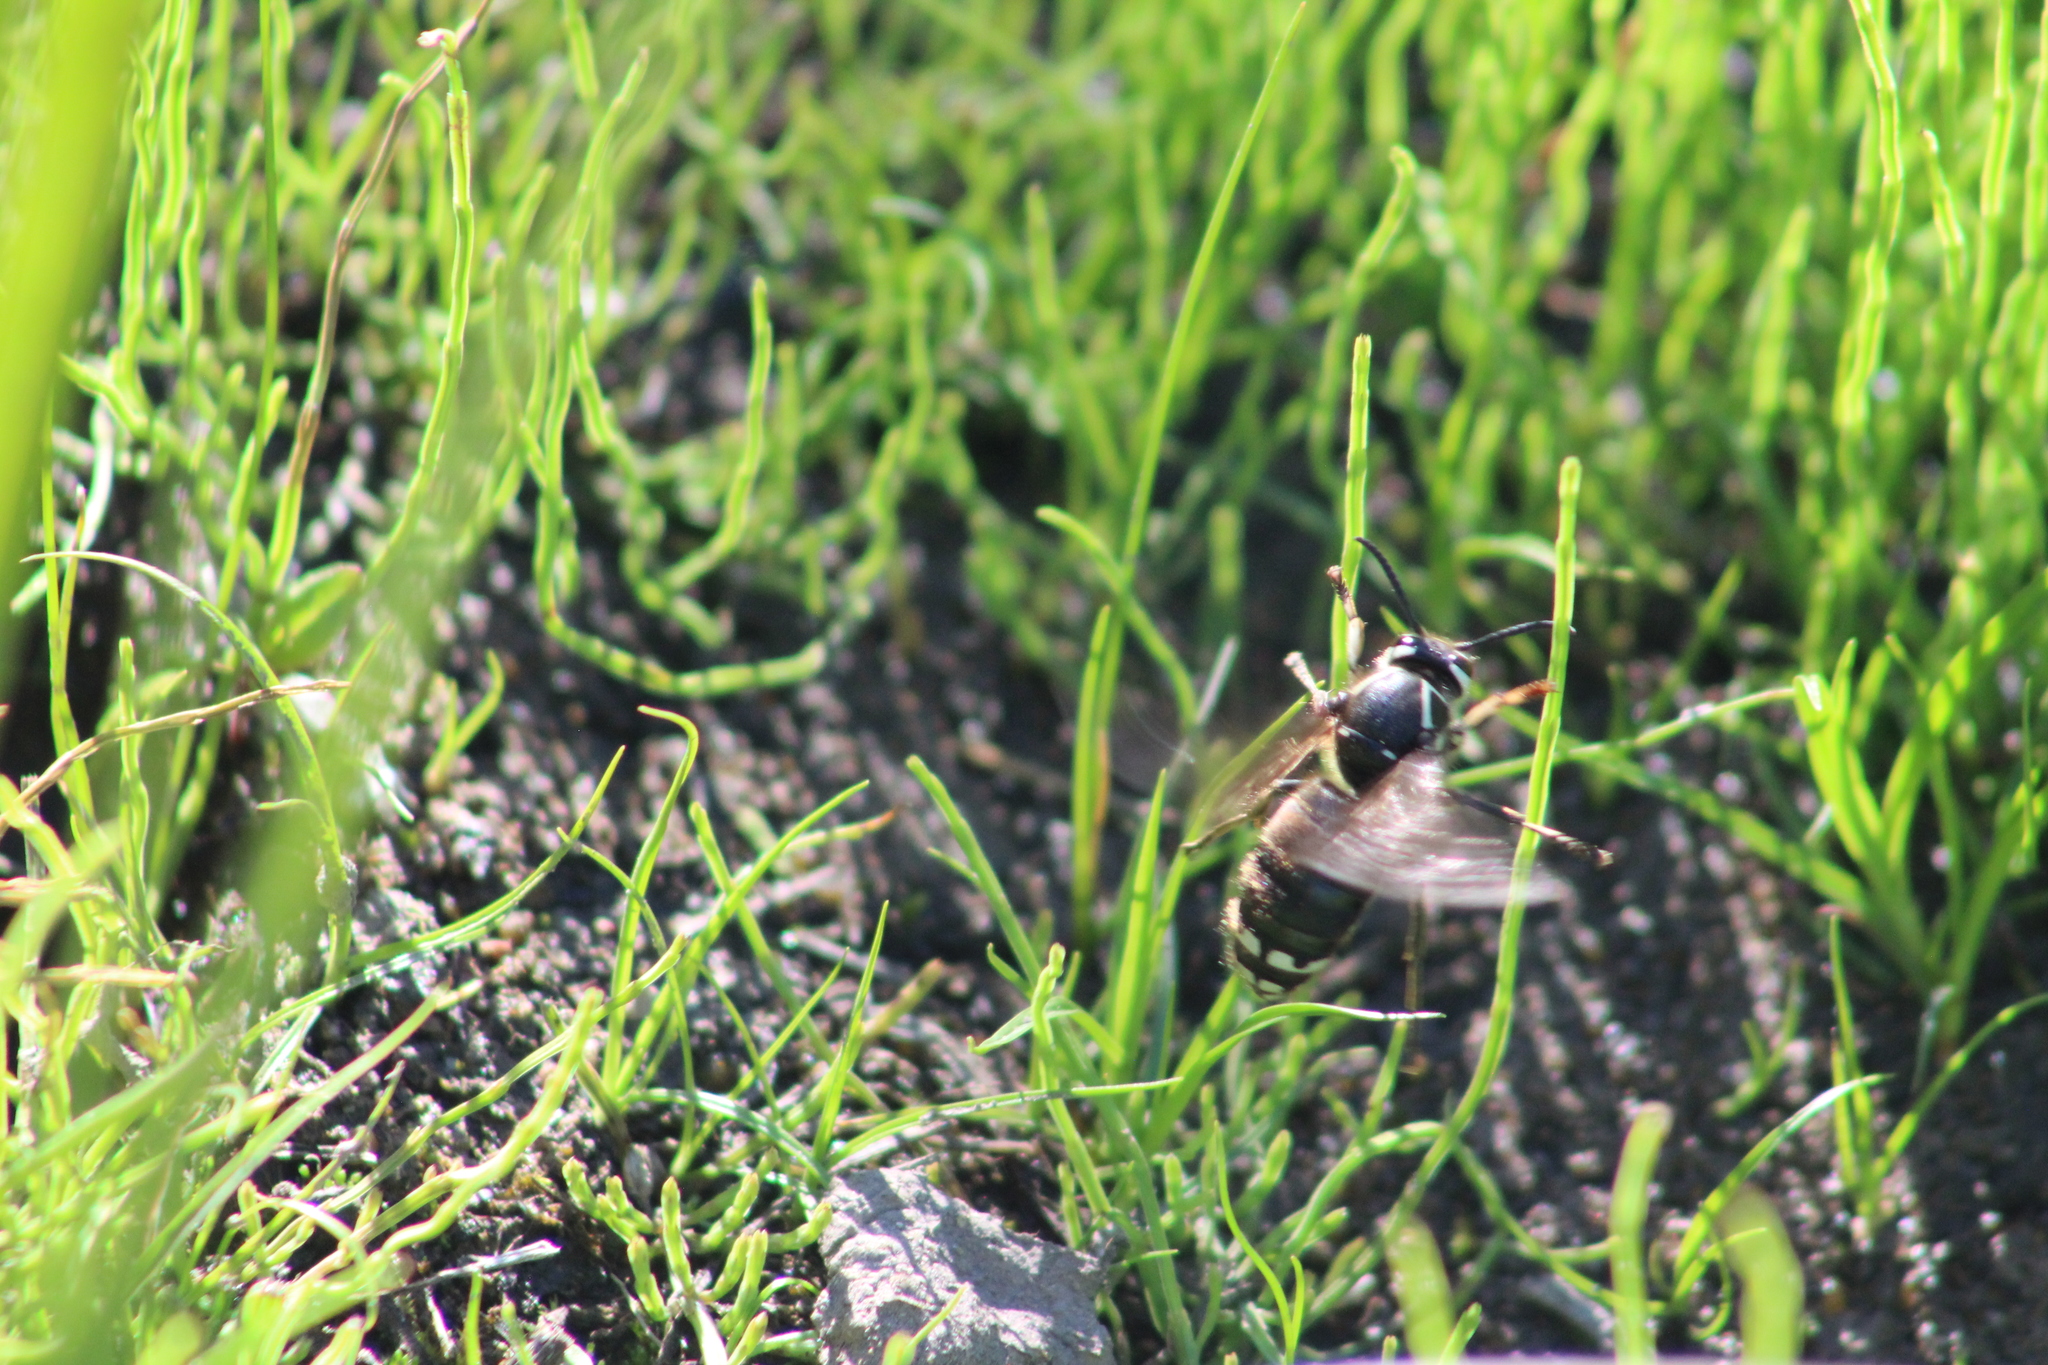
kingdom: Animalia
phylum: Arthropoda
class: Insecta
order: Hymenoptera
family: Vespidae
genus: Dolichovespula
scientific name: Dolichovespula maculata
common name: Bald-faced hornet
